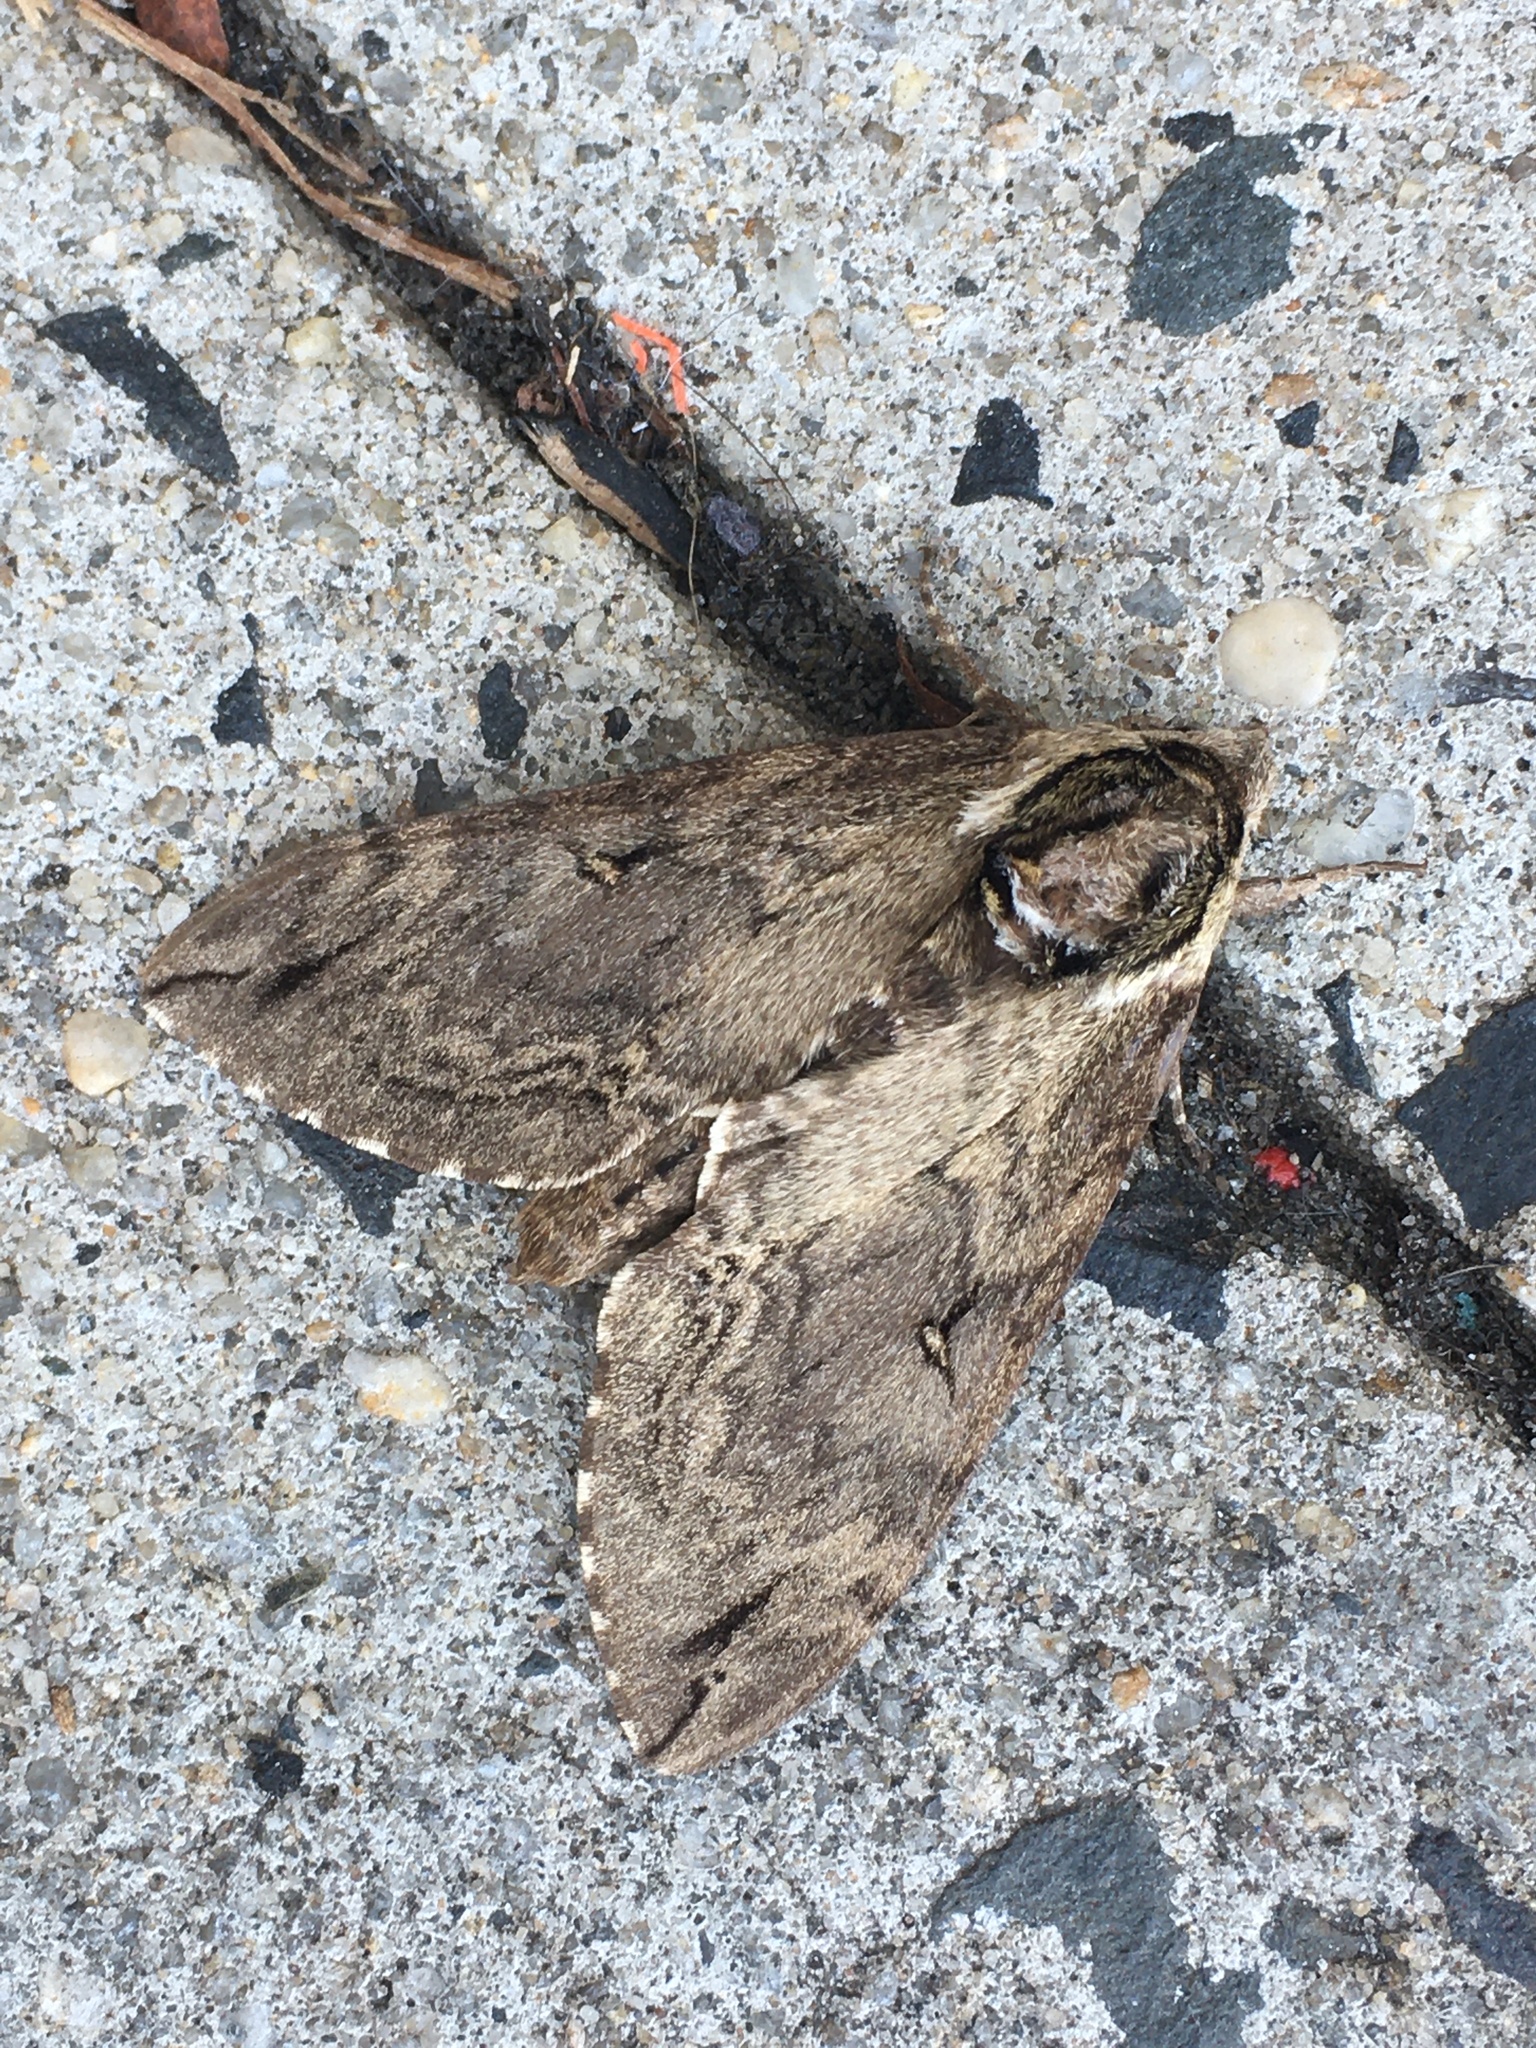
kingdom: Animalia
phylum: Arthropoda
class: Insecta
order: Lepidoptera
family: Sphingidae
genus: Ceratomia
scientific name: Ceratomia catalpae
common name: Catalpa hornworm
